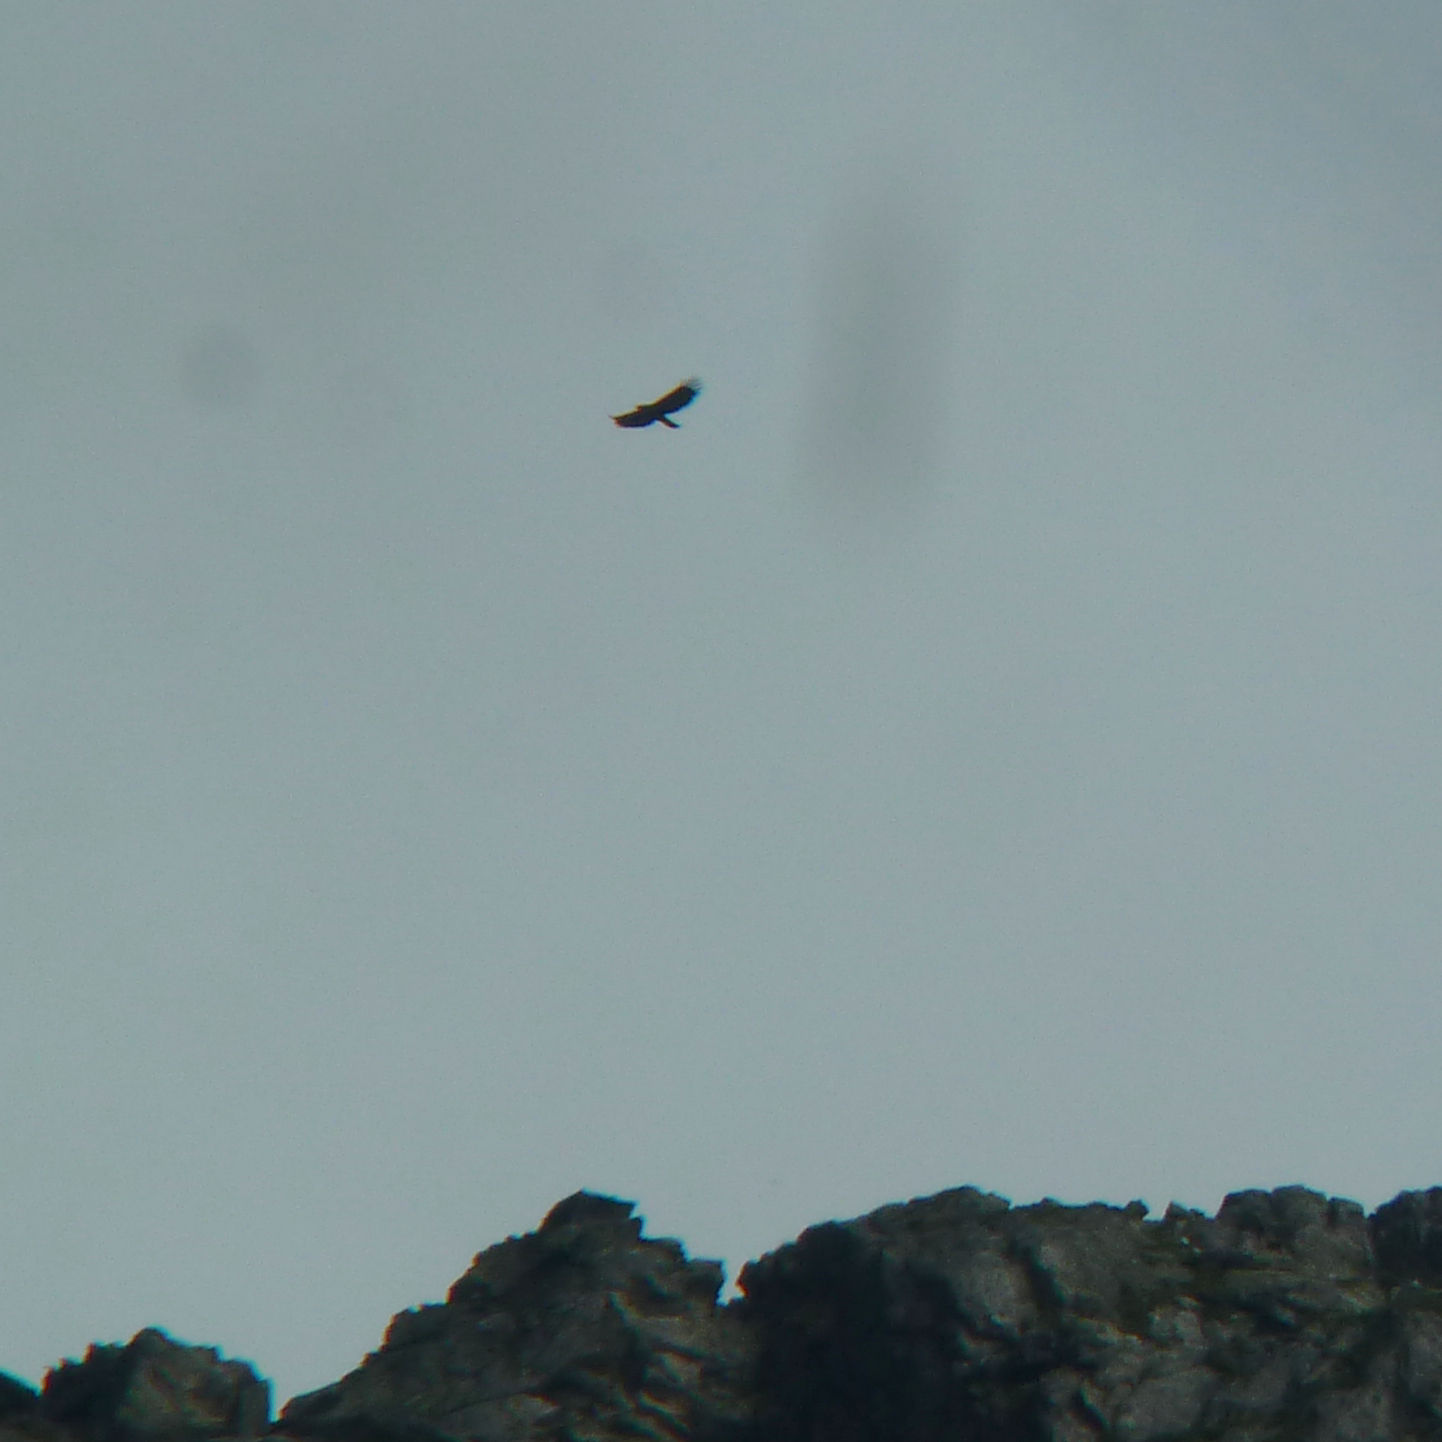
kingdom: Animalia
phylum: Chordata
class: Aves
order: Accipitriformes
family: Accipitridae
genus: Aquila
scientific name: Aquila chrysaetos
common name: Golden eagle
